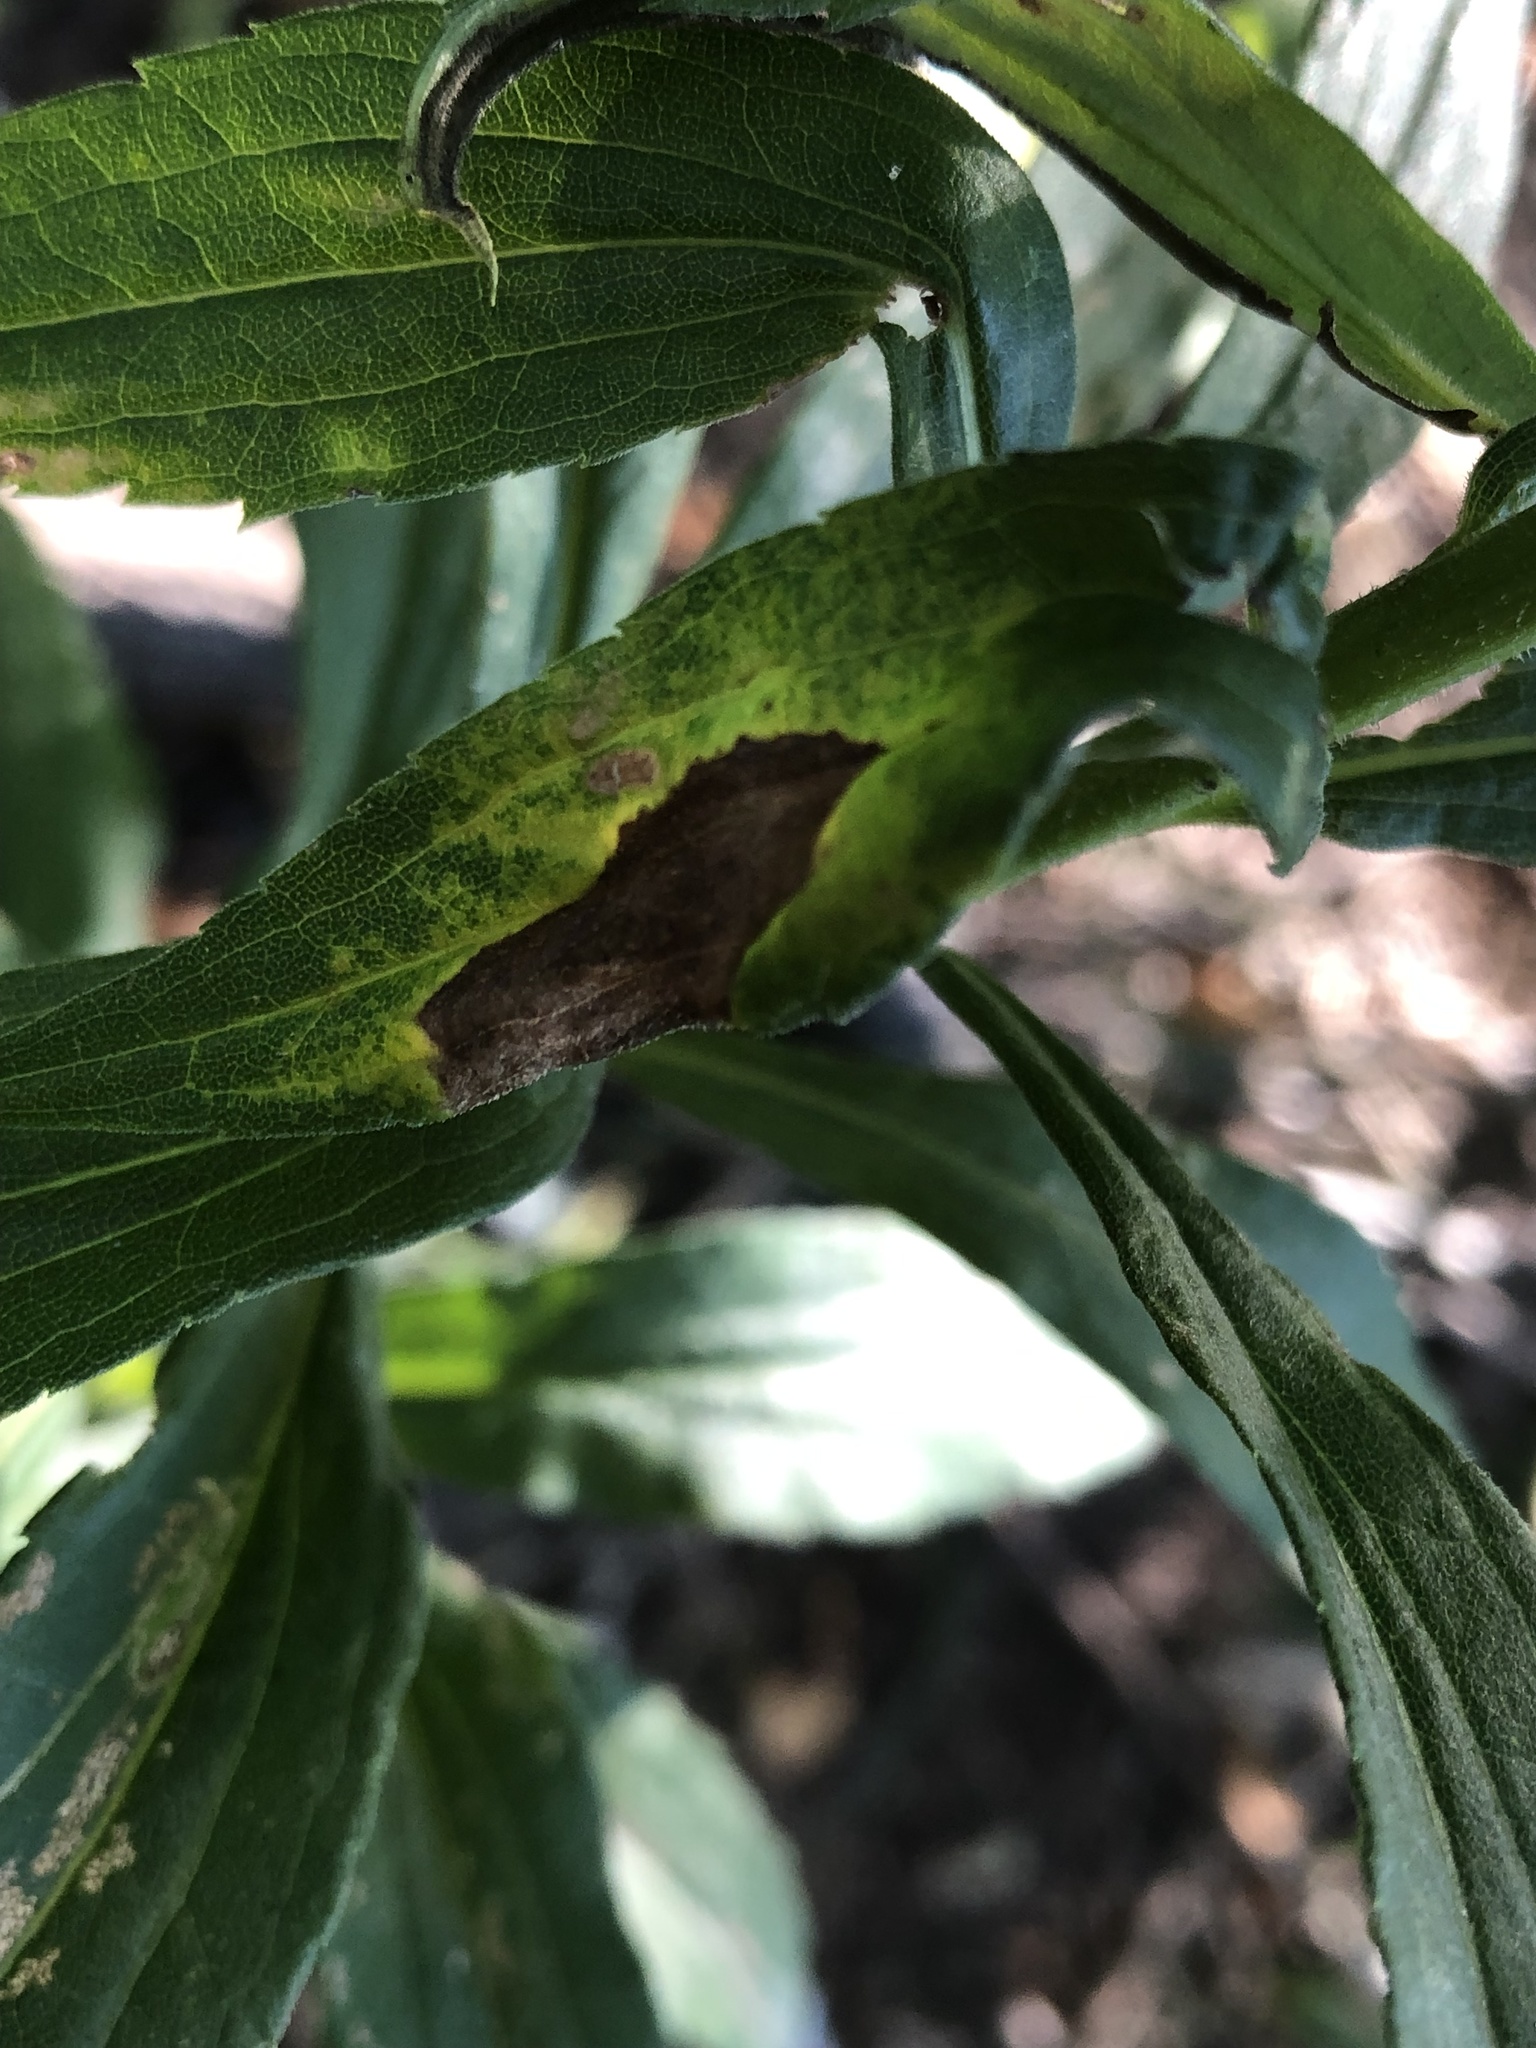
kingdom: Animalia
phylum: Arthropoda
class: Insecta
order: Diptera
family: Cecidomyiidae
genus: Asteromyia
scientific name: Asteromyia carbonifera
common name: Carbonifera goldenrod gall midge
